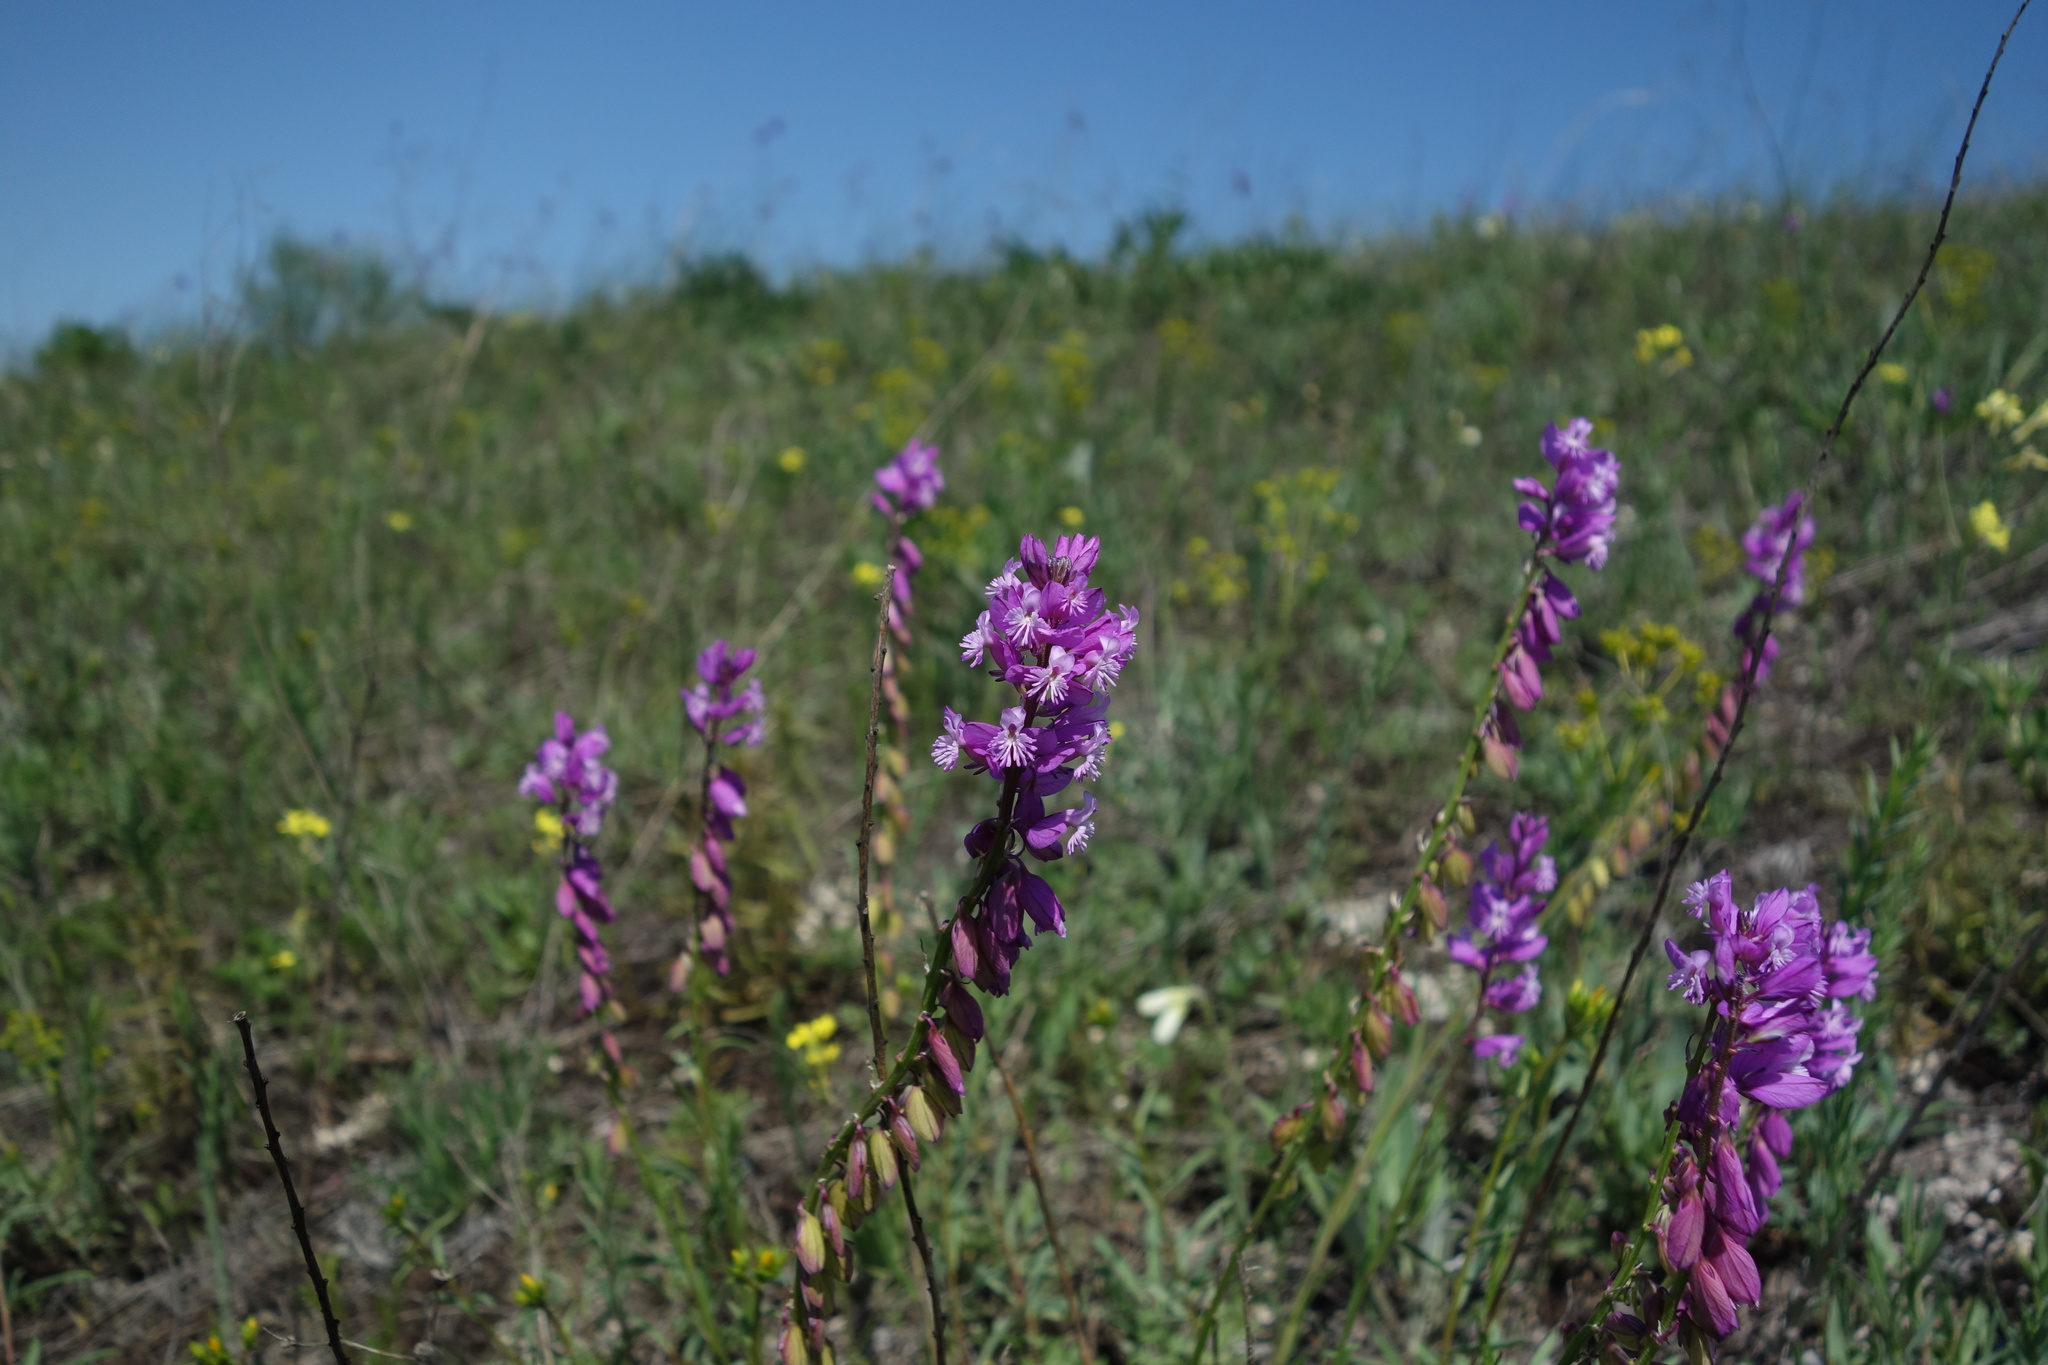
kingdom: Plantae
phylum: Tracheophyta
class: Magnoliopsida
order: Fabales
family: Polygalaceae
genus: Polygala
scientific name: Polygala nicaeensis
